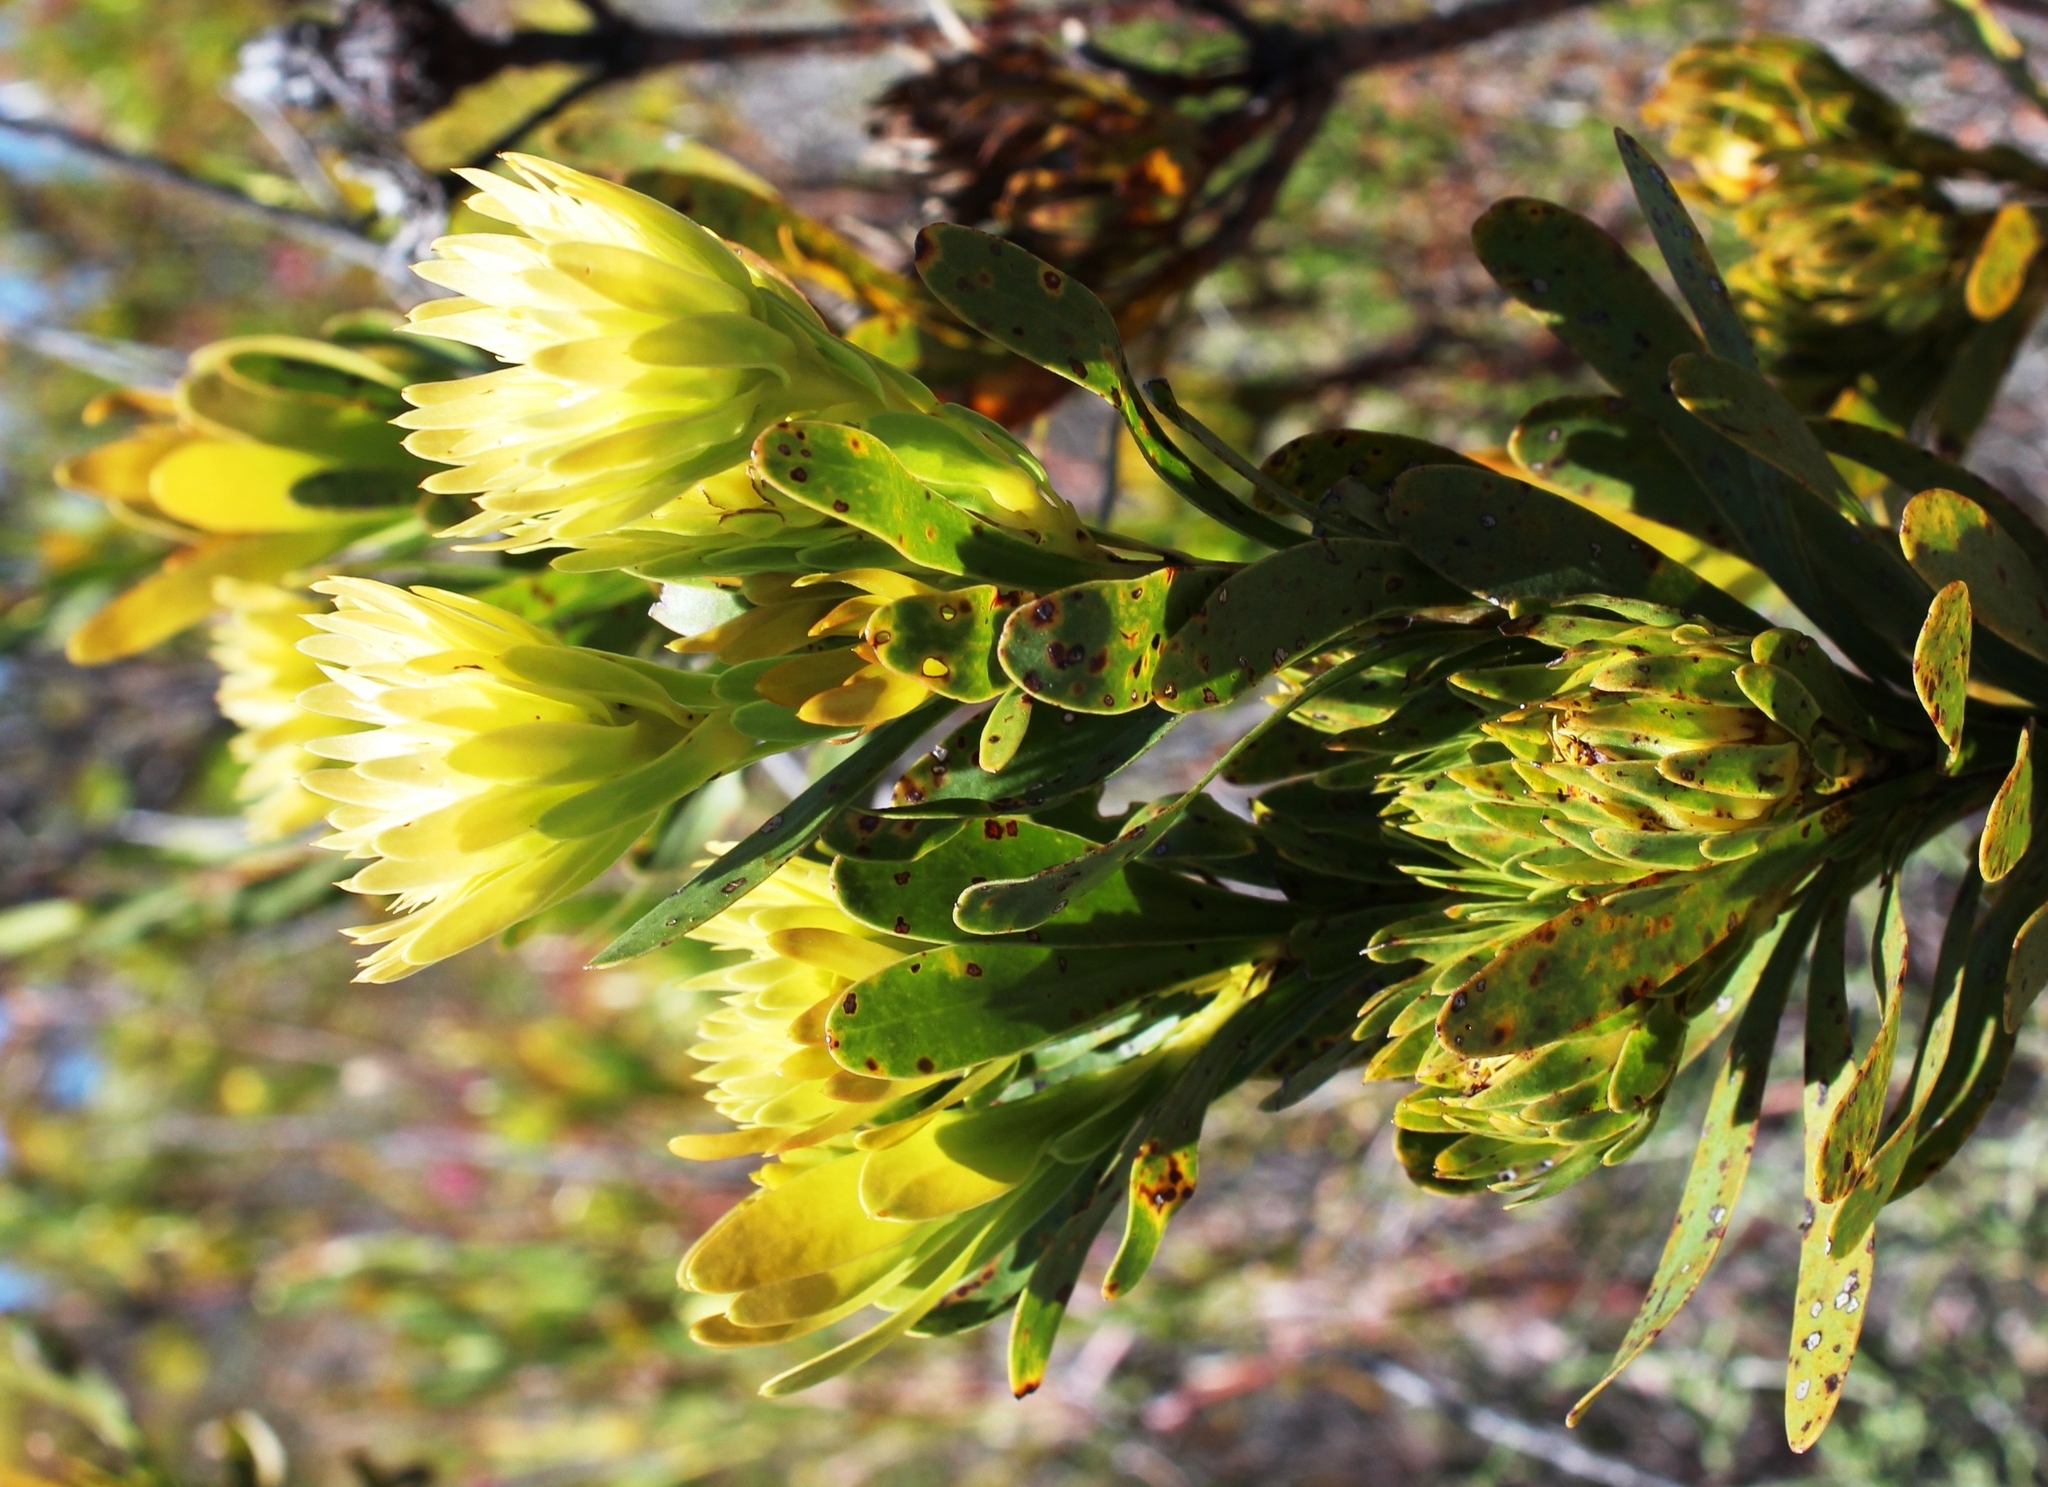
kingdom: Plantae
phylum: Tracheophyta
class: Magnoliopsida
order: Proteales
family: Proteaceae
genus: Aulax
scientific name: Aulax umbellata
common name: Broad-leaf featherbush
